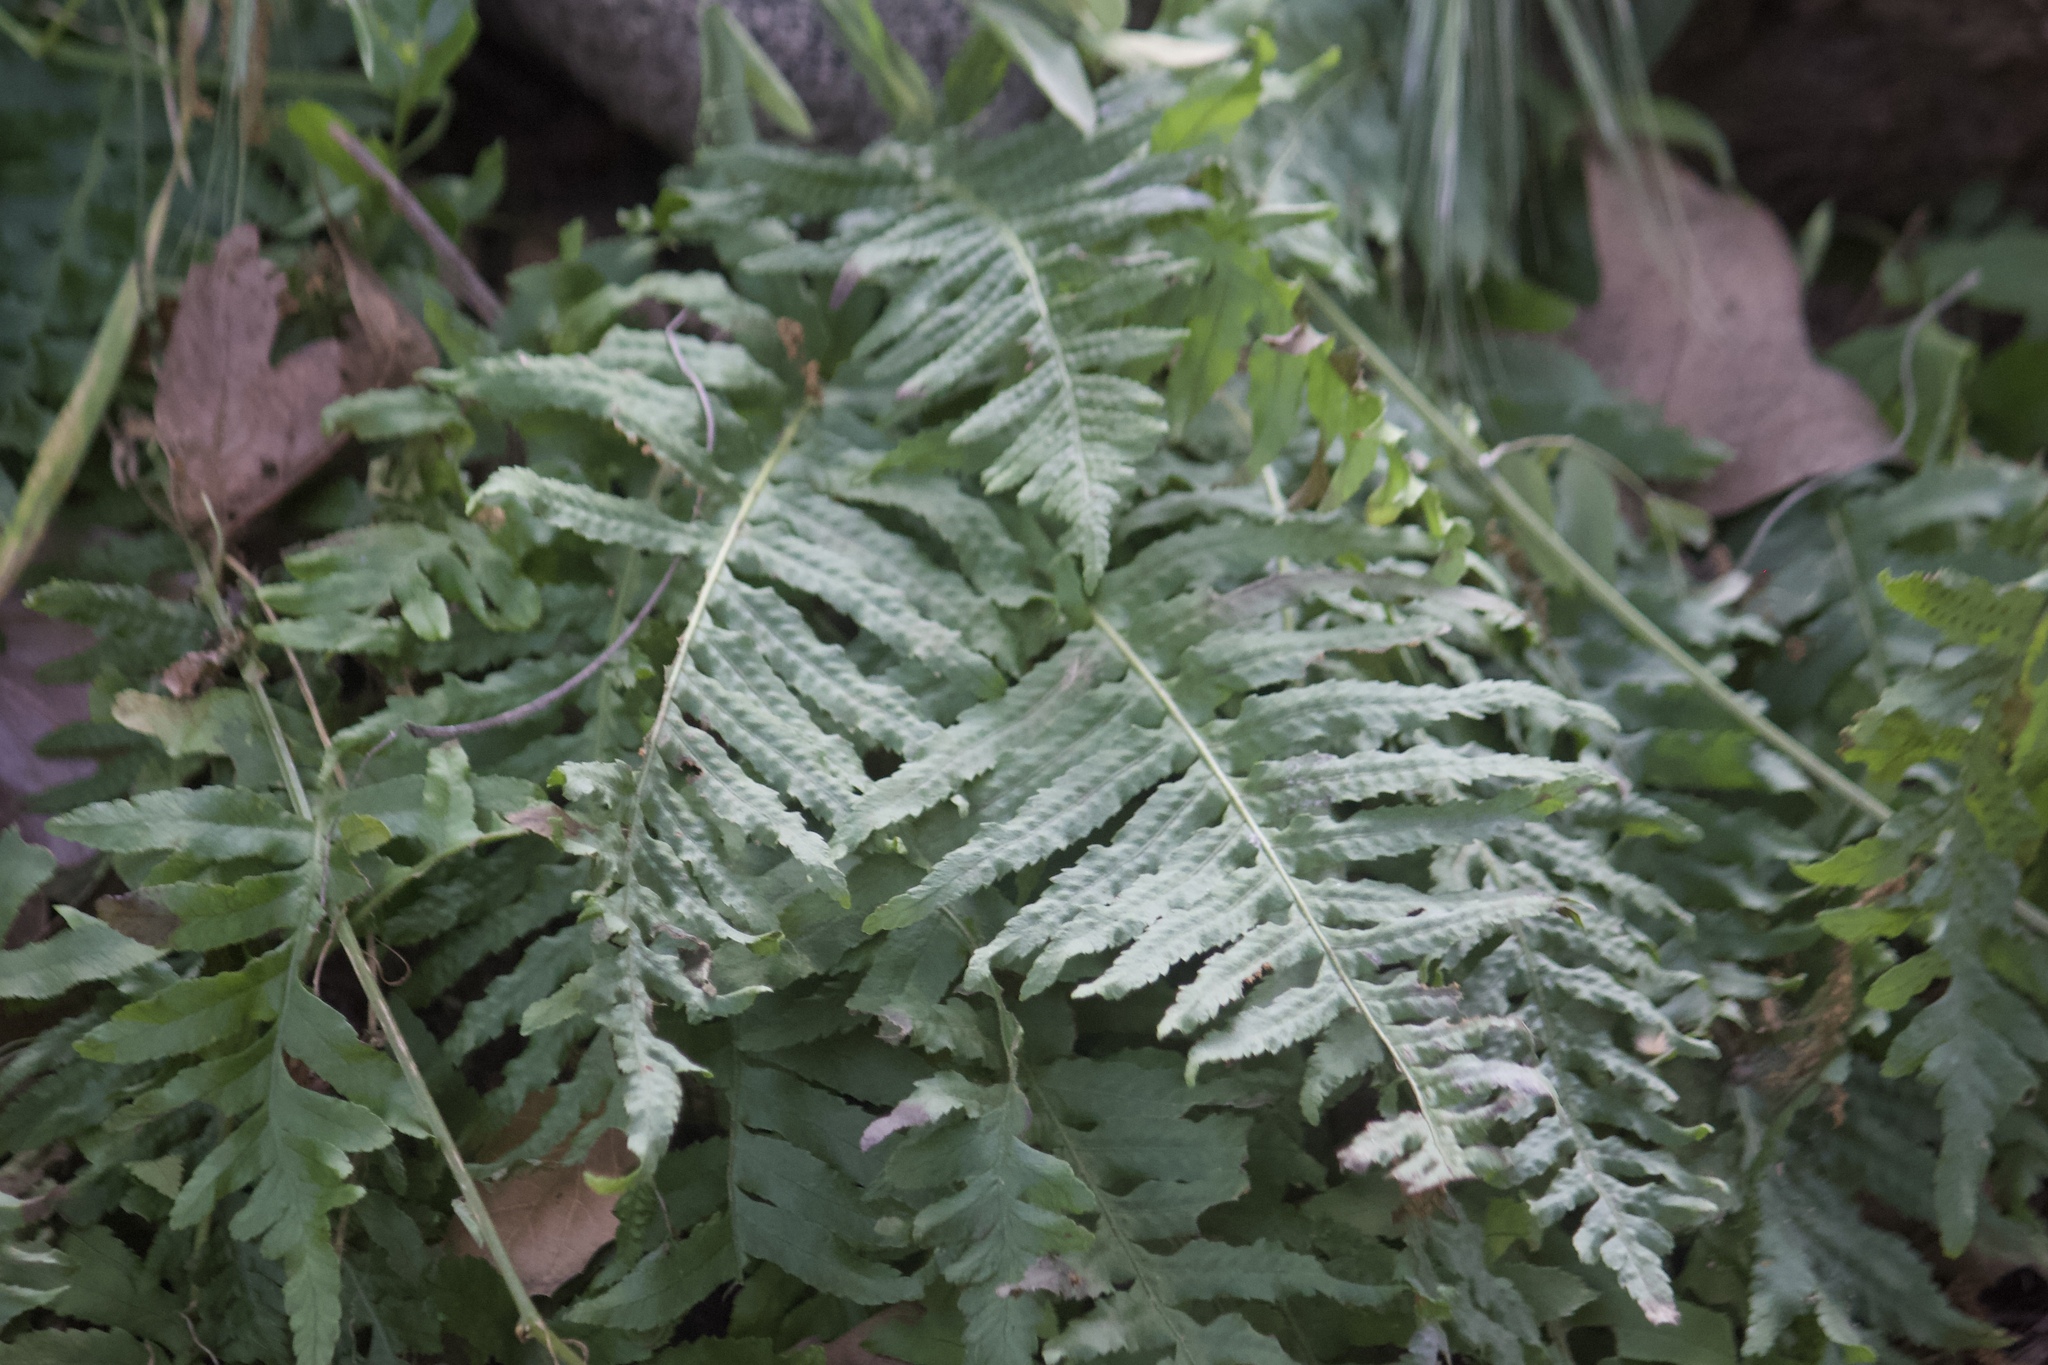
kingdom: Plantae
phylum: Tracheophyta
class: Polypodiopsida
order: Polypodiales
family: Polypodiaceae
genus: Polypodium
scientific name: Polypodium californicum
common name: California polypody
